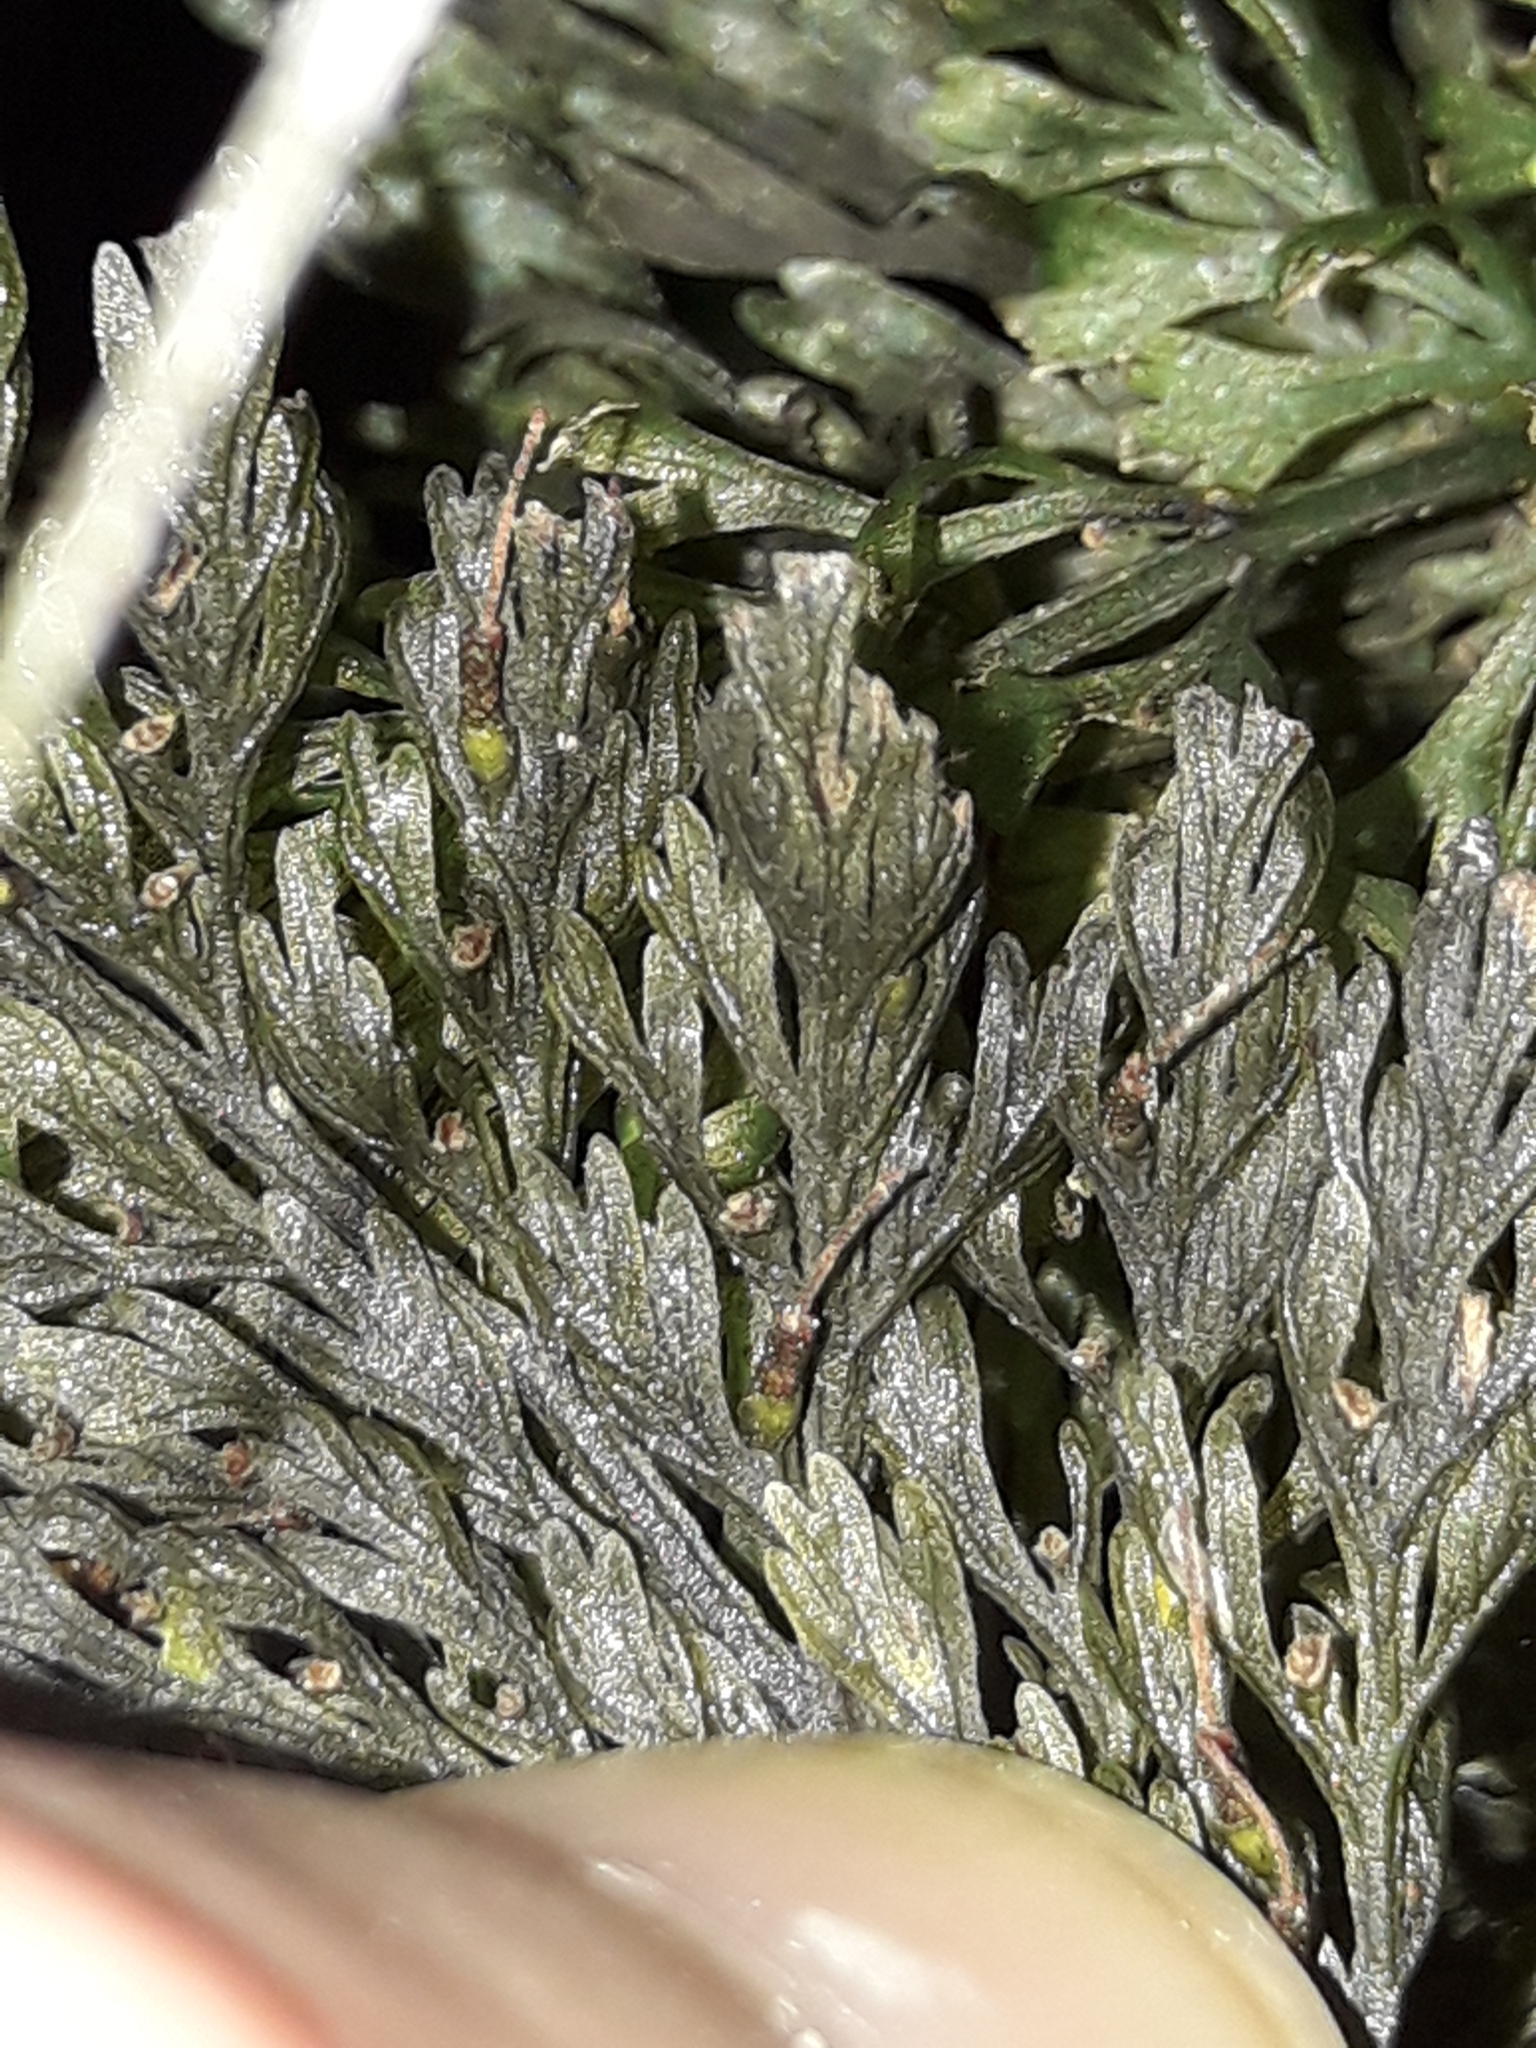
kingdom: Plantae
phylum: Tracheophyta
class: Polypodiopsida
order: Hymenophyllales
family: Hymenophyllaceae
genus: Abrodictyum
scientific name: Abrodictyum strictum
